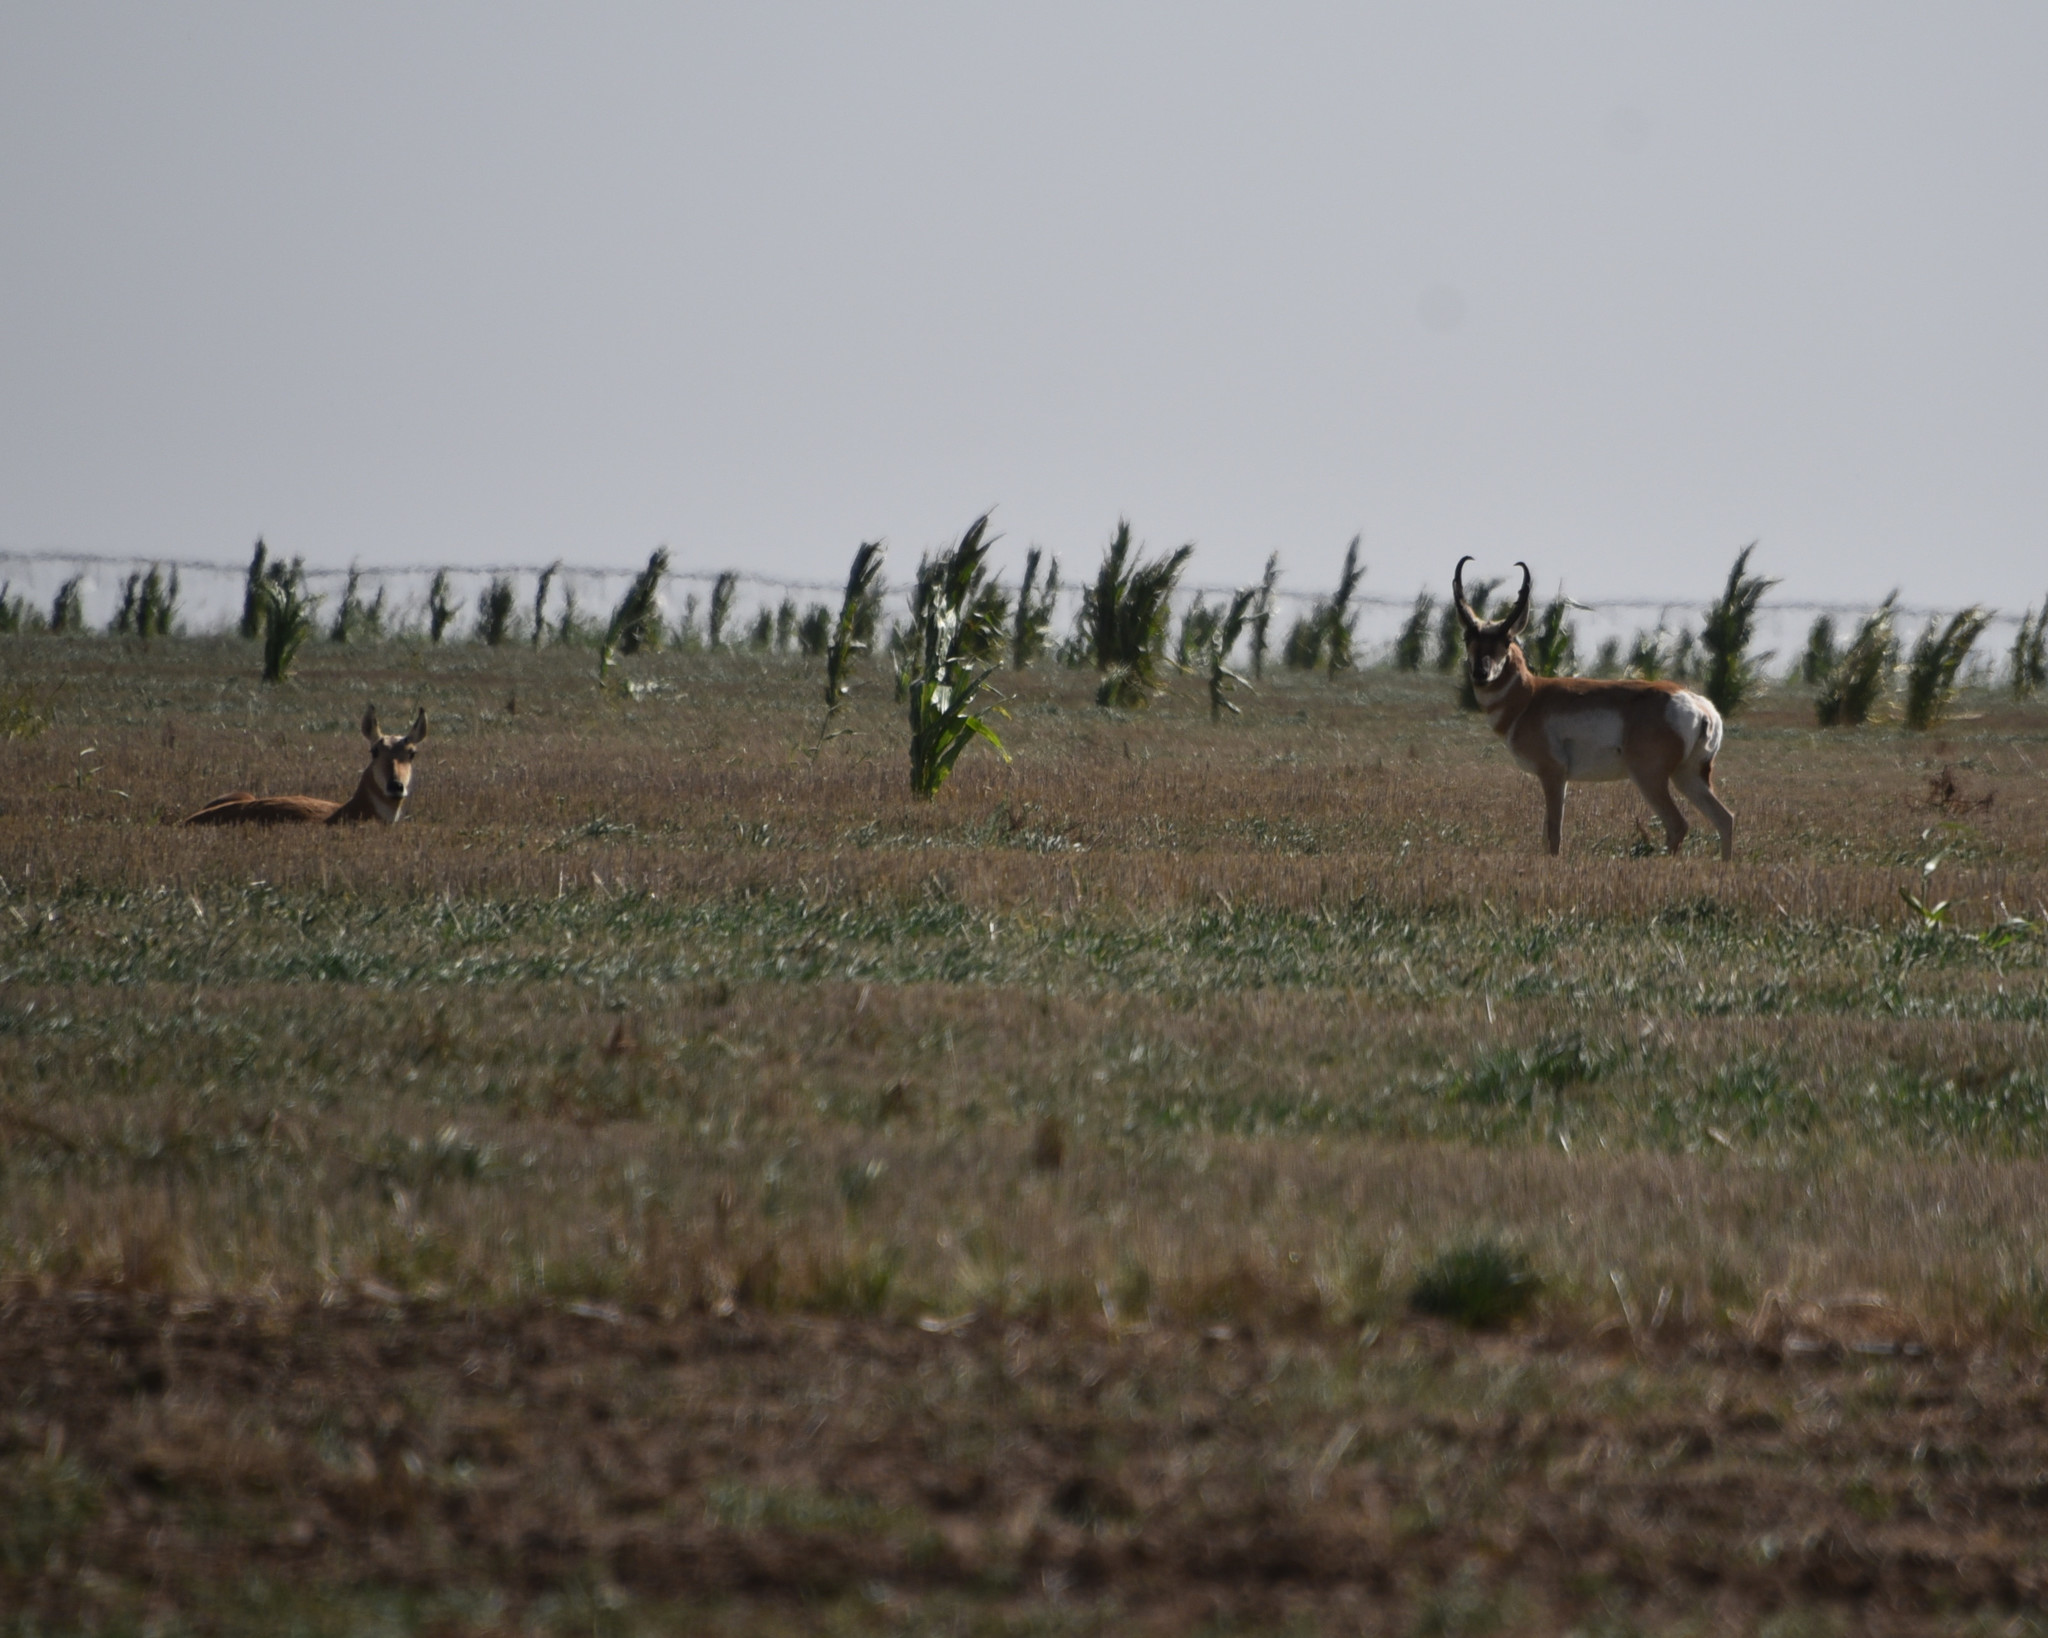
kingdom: Animalia
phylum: Chordata
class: Mammalia
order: Artiodactyla
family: Antilocapridae
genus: Antilocapra
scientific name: Antilocapra americana
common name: Pronghorn
